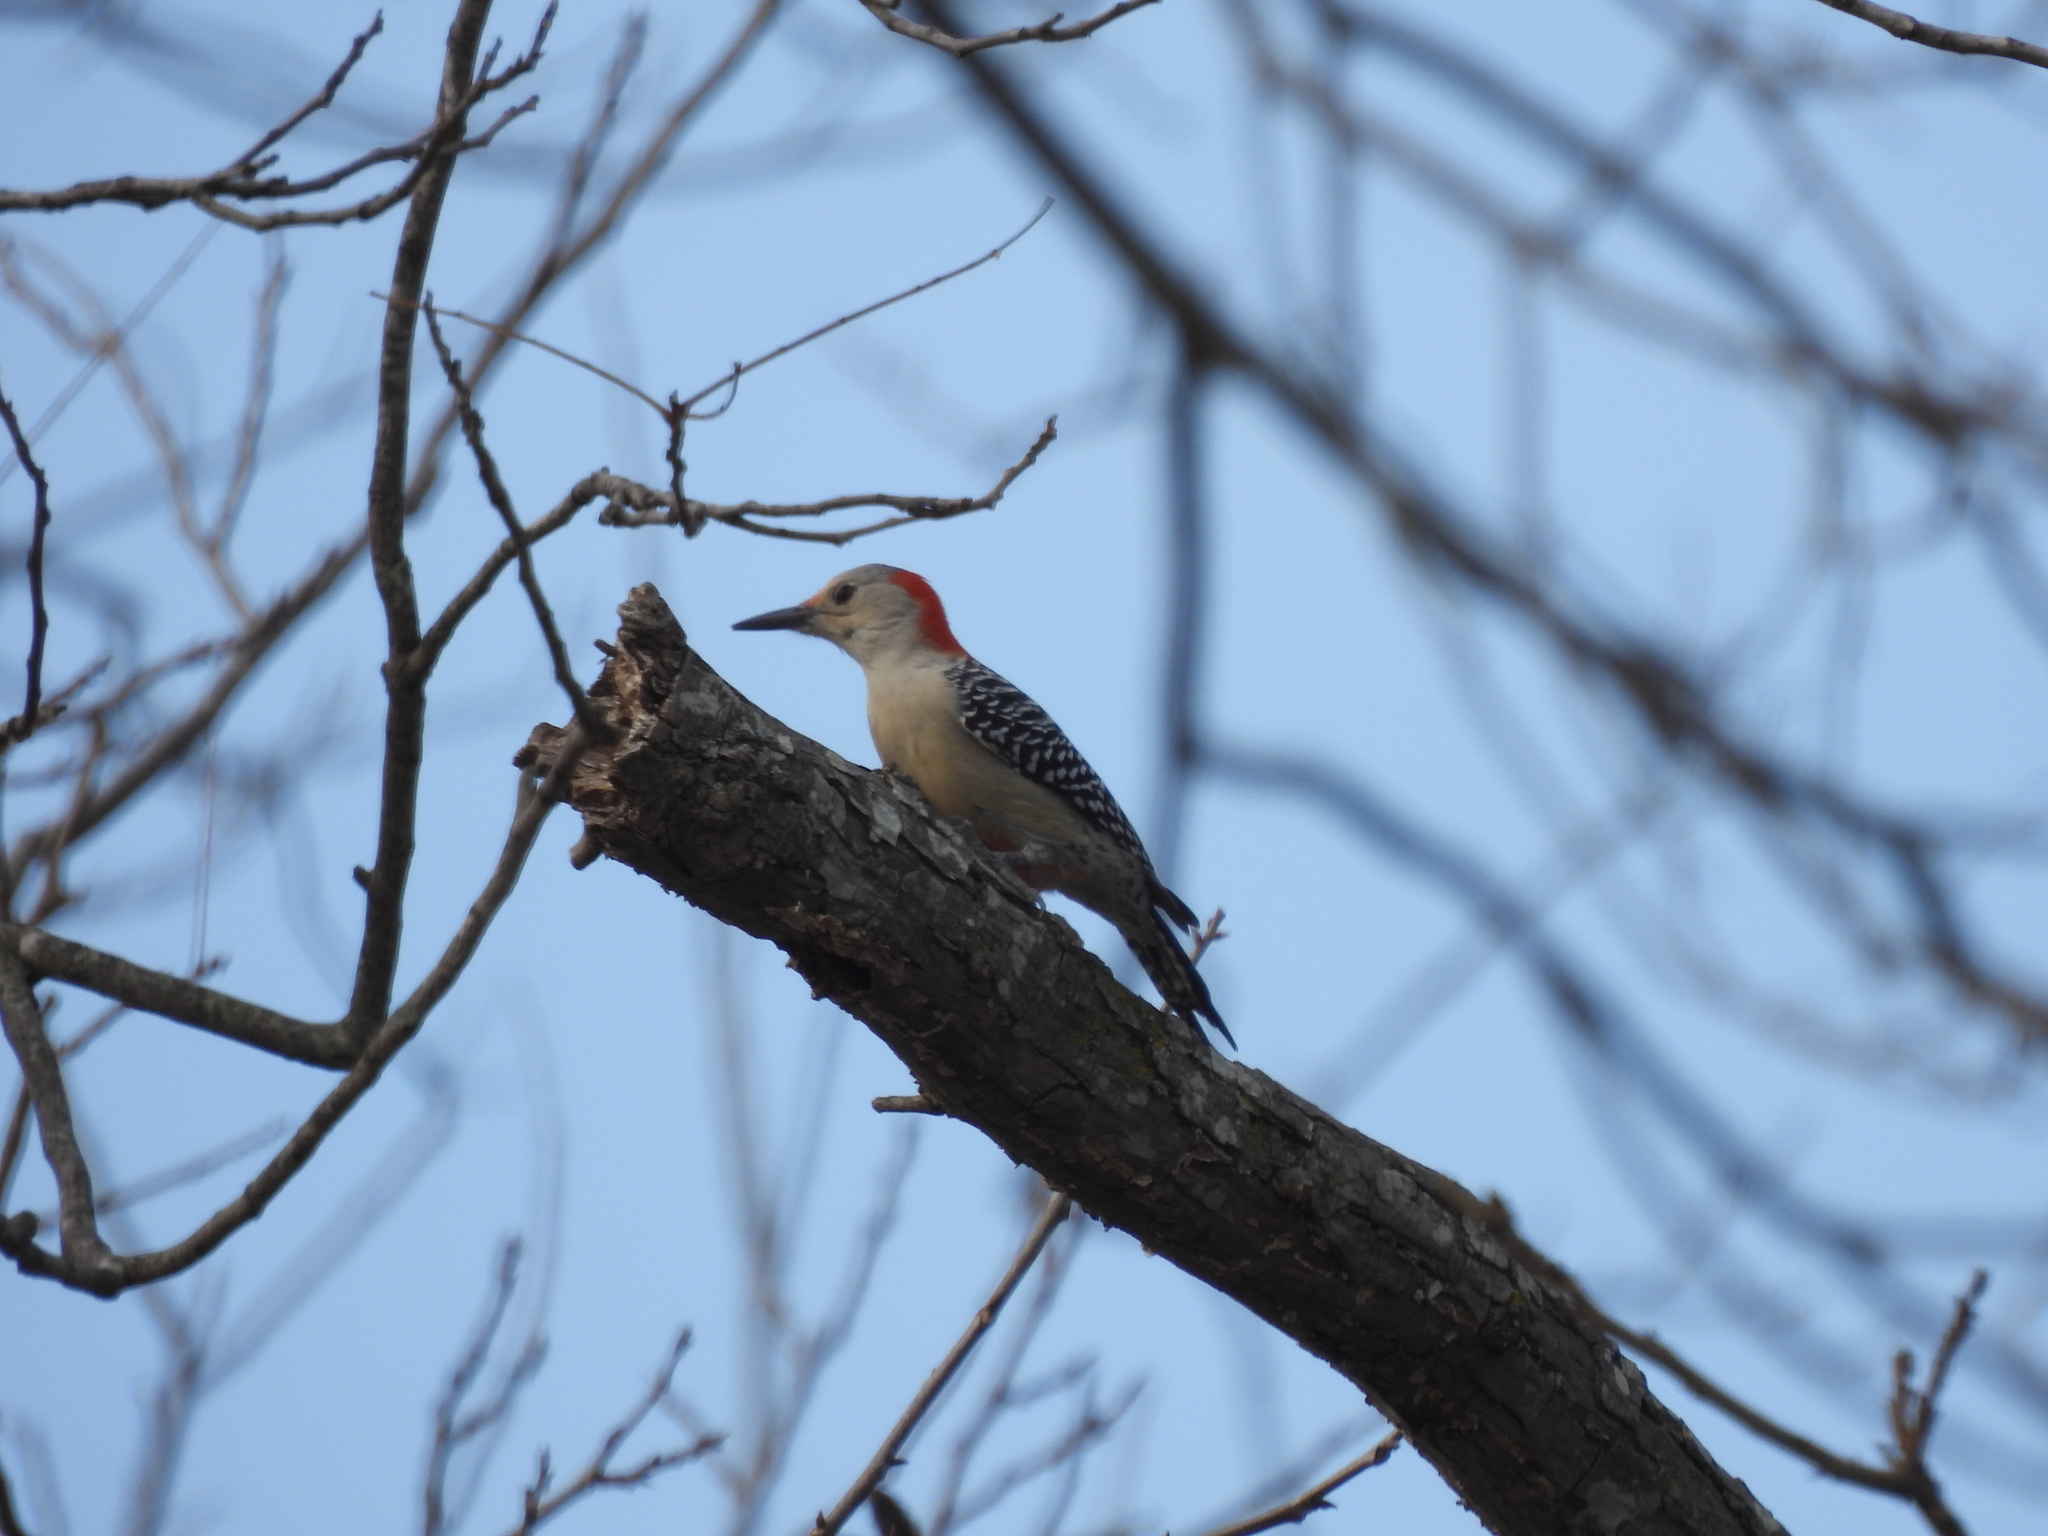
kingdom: Animalia
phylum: Chordata
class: Aves
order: Piciformes
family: Picidae
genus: Melanerpes
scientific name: Melanerpes carolinus
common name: Red-bellied woodpecker
